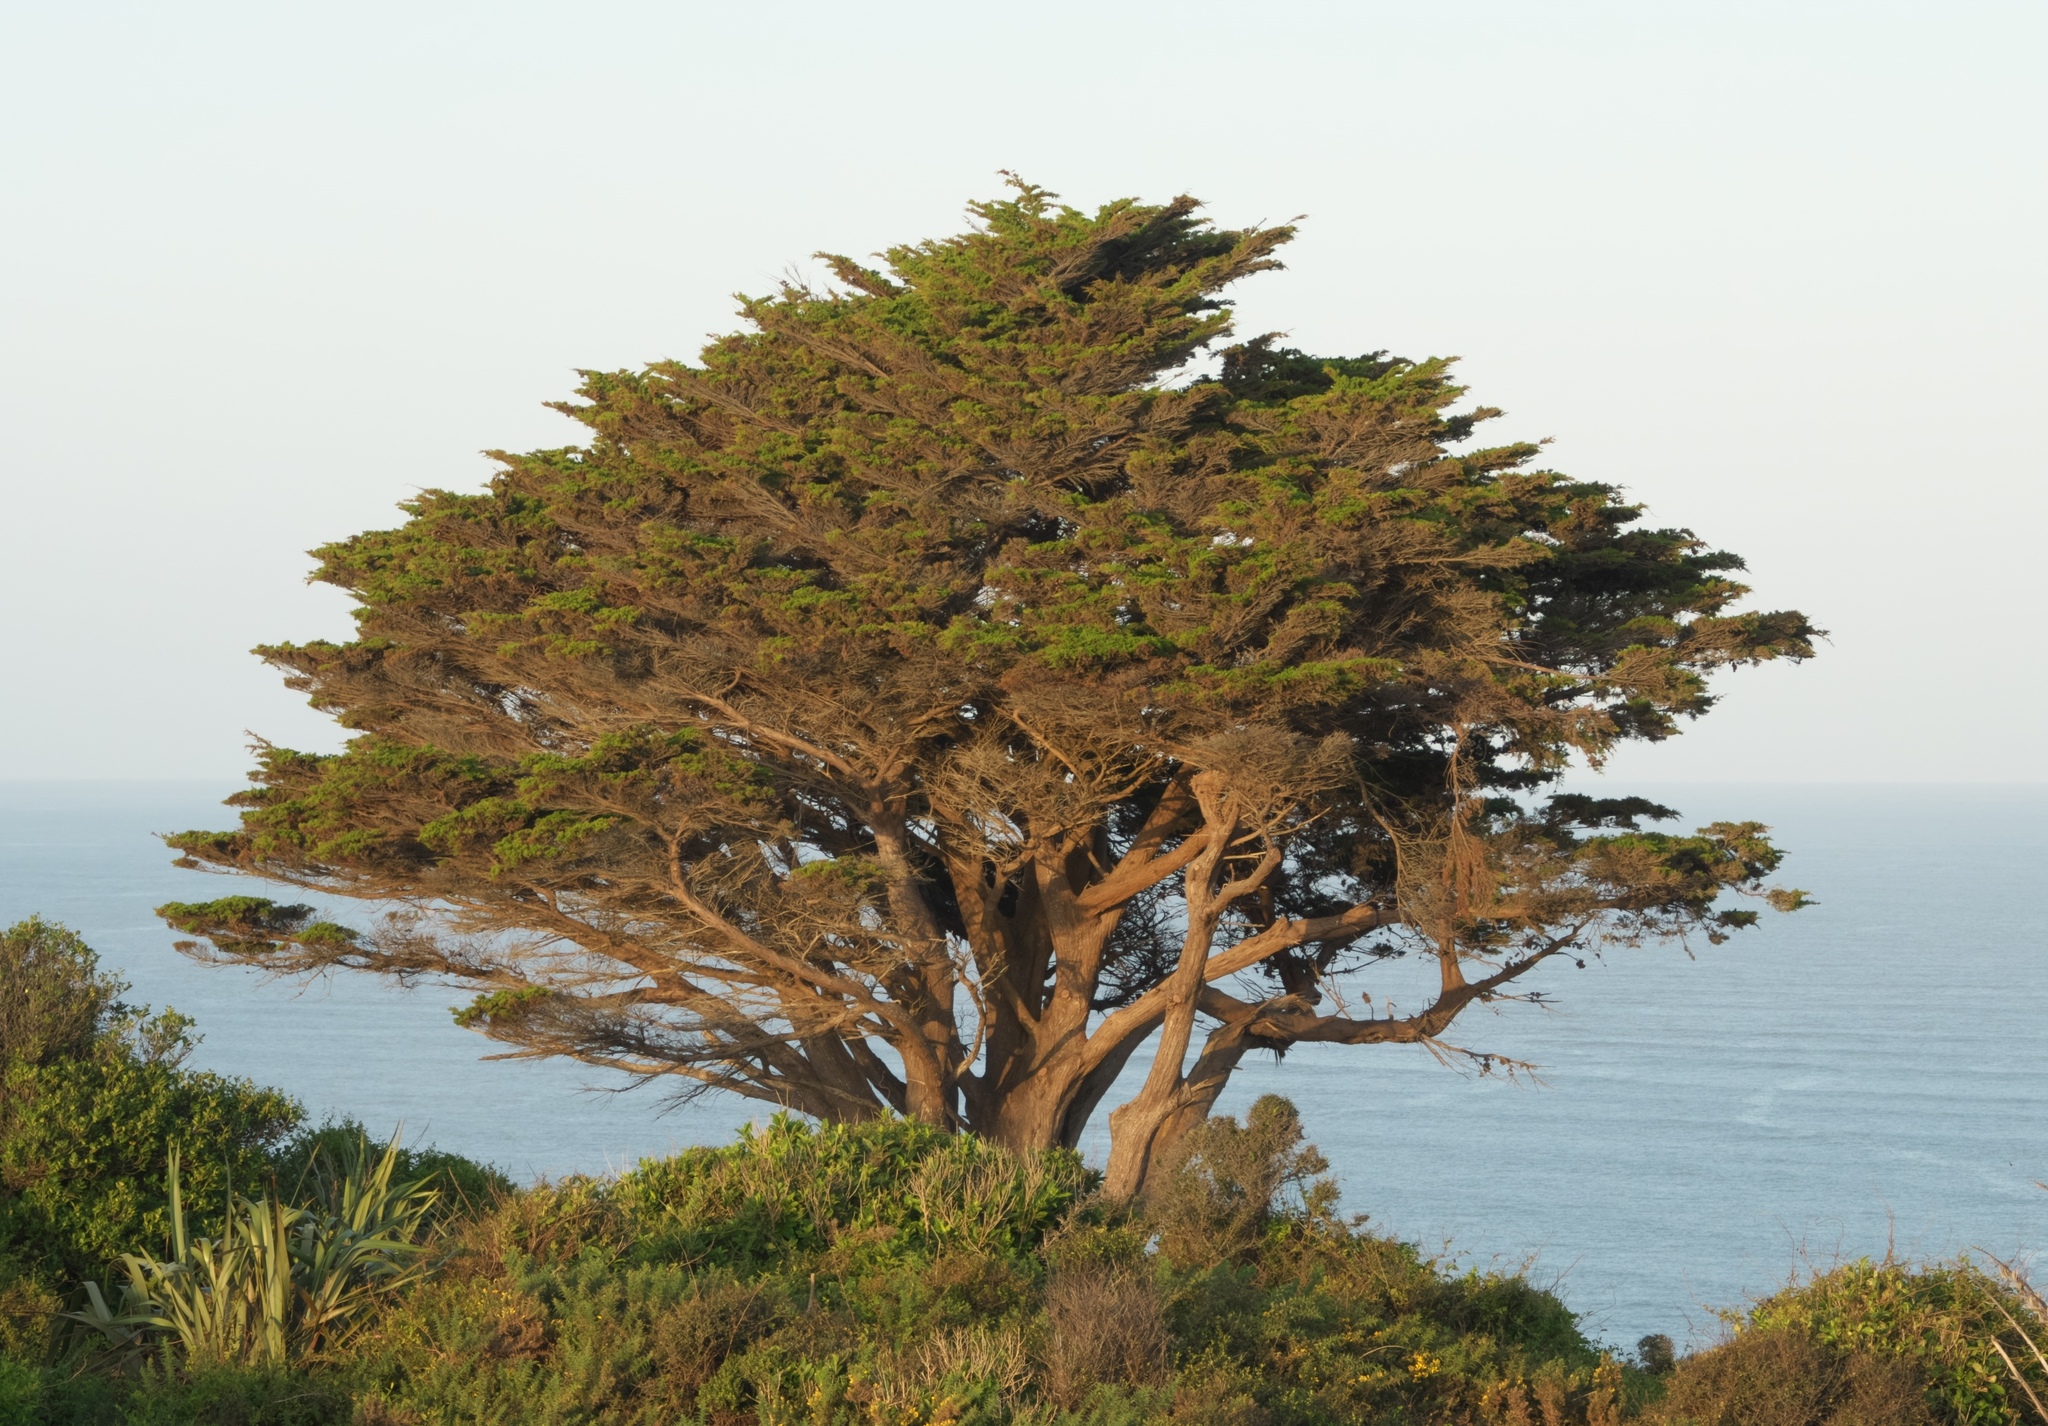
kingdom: Plantae
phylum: Tracheophyta
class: Pinopsida
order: Pinales
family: Cupressaceae
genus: Cupressus
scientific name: Cupressus macrocarpa
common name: Monterey cypress
